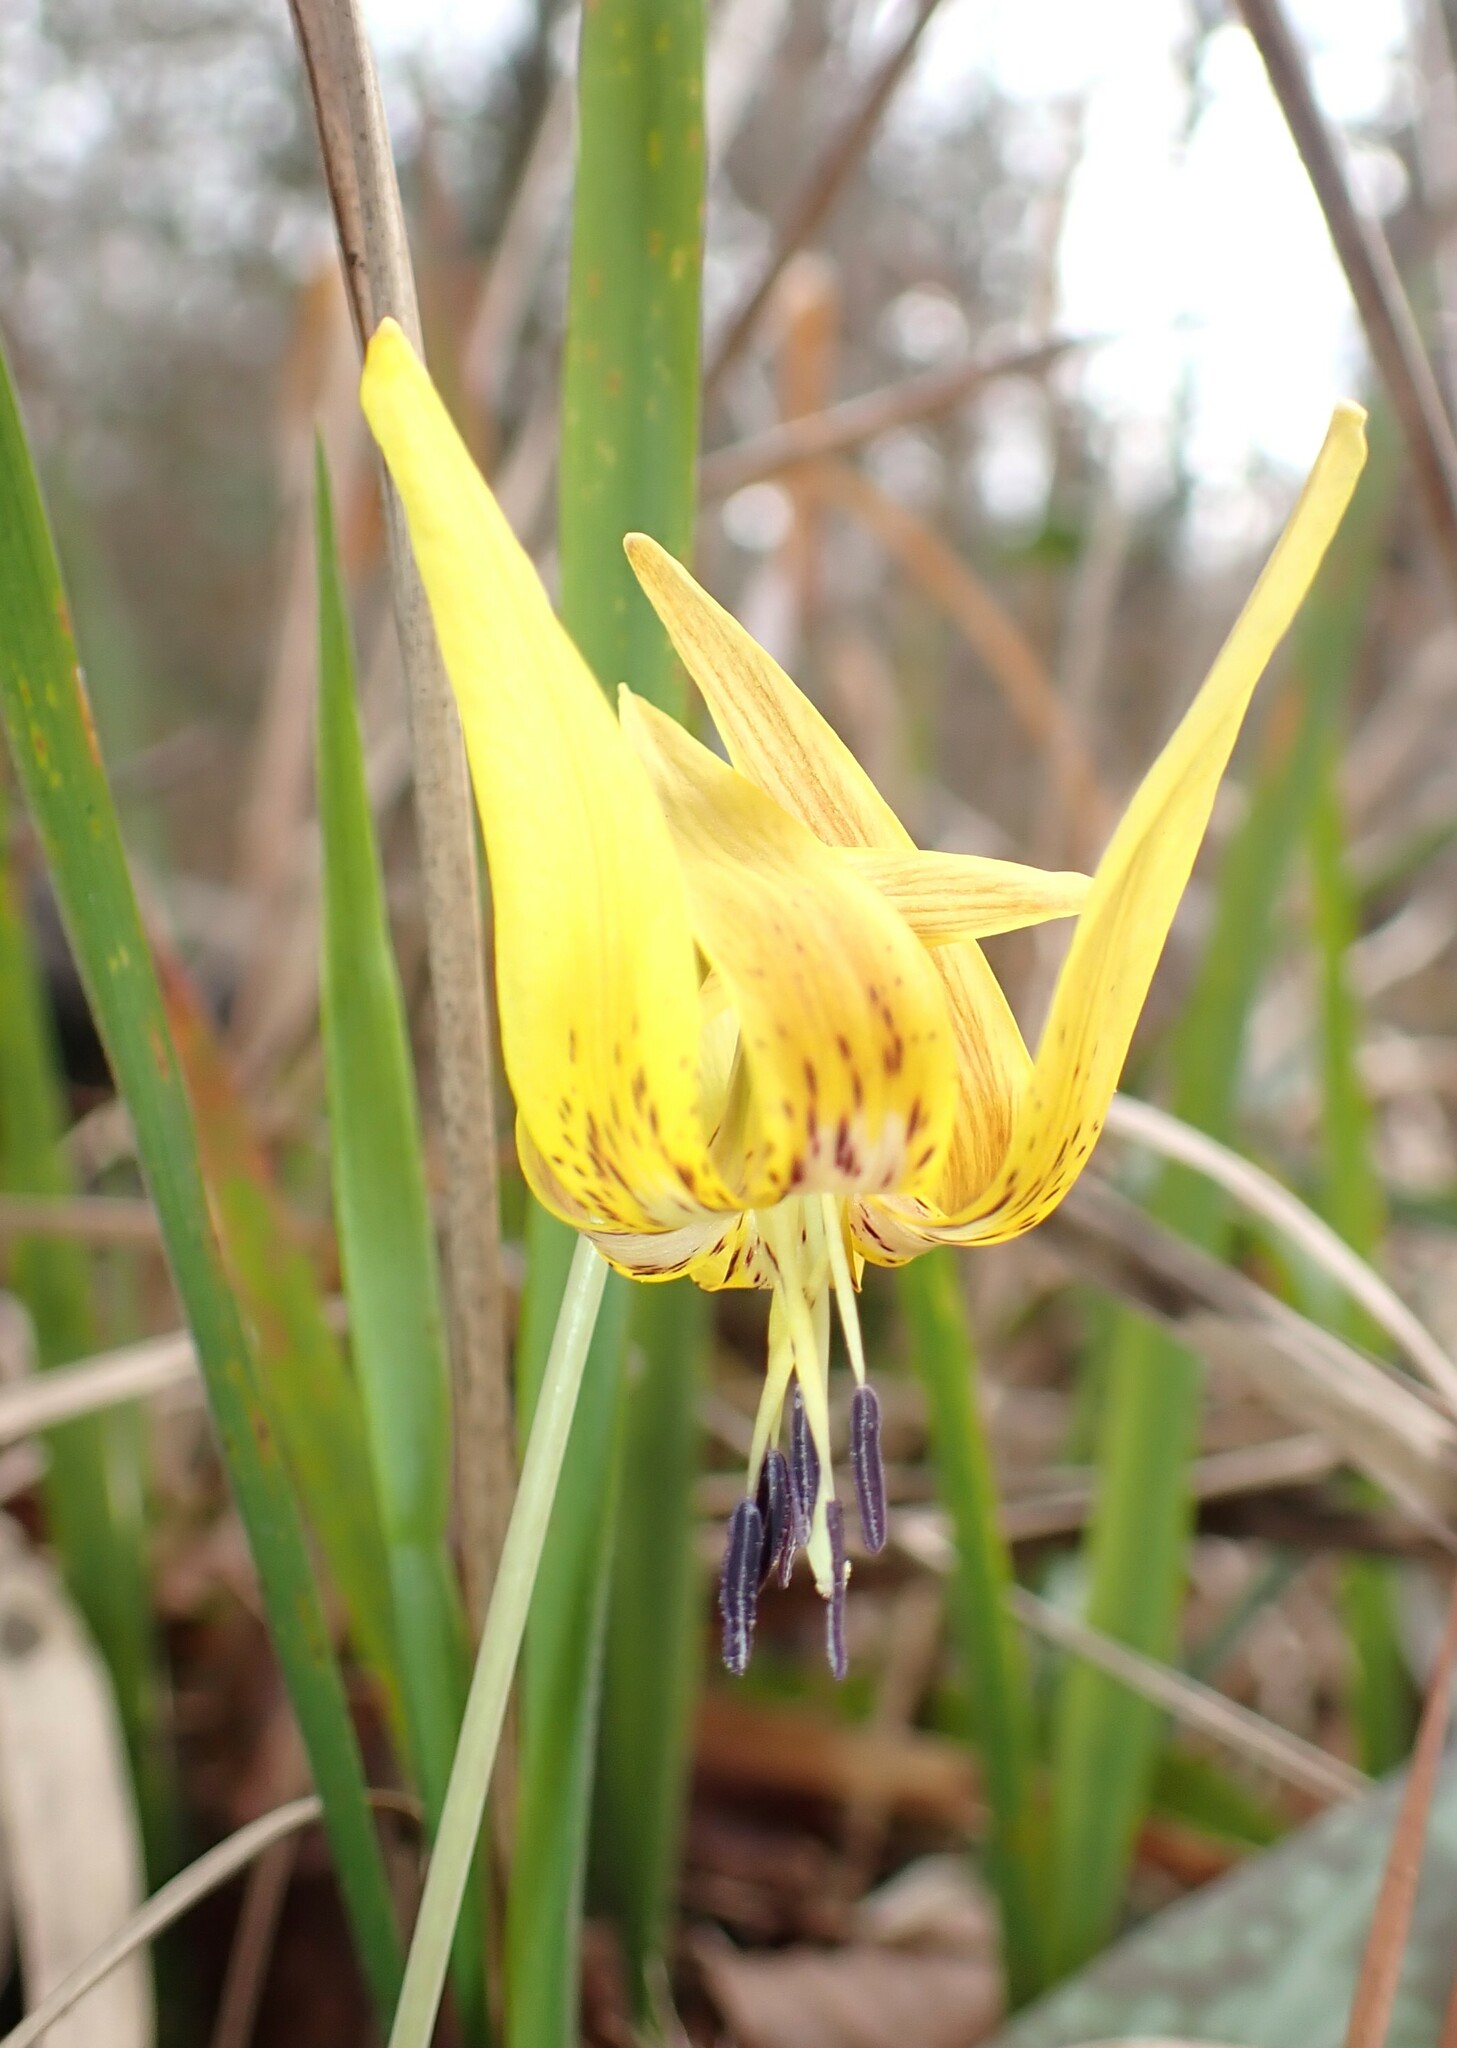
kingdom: Plantae
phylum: Tracheophyta
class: Liliopsida
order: Liliales
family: Liliaceae
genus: Erythronium
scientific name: Erythronium umbilicatum
